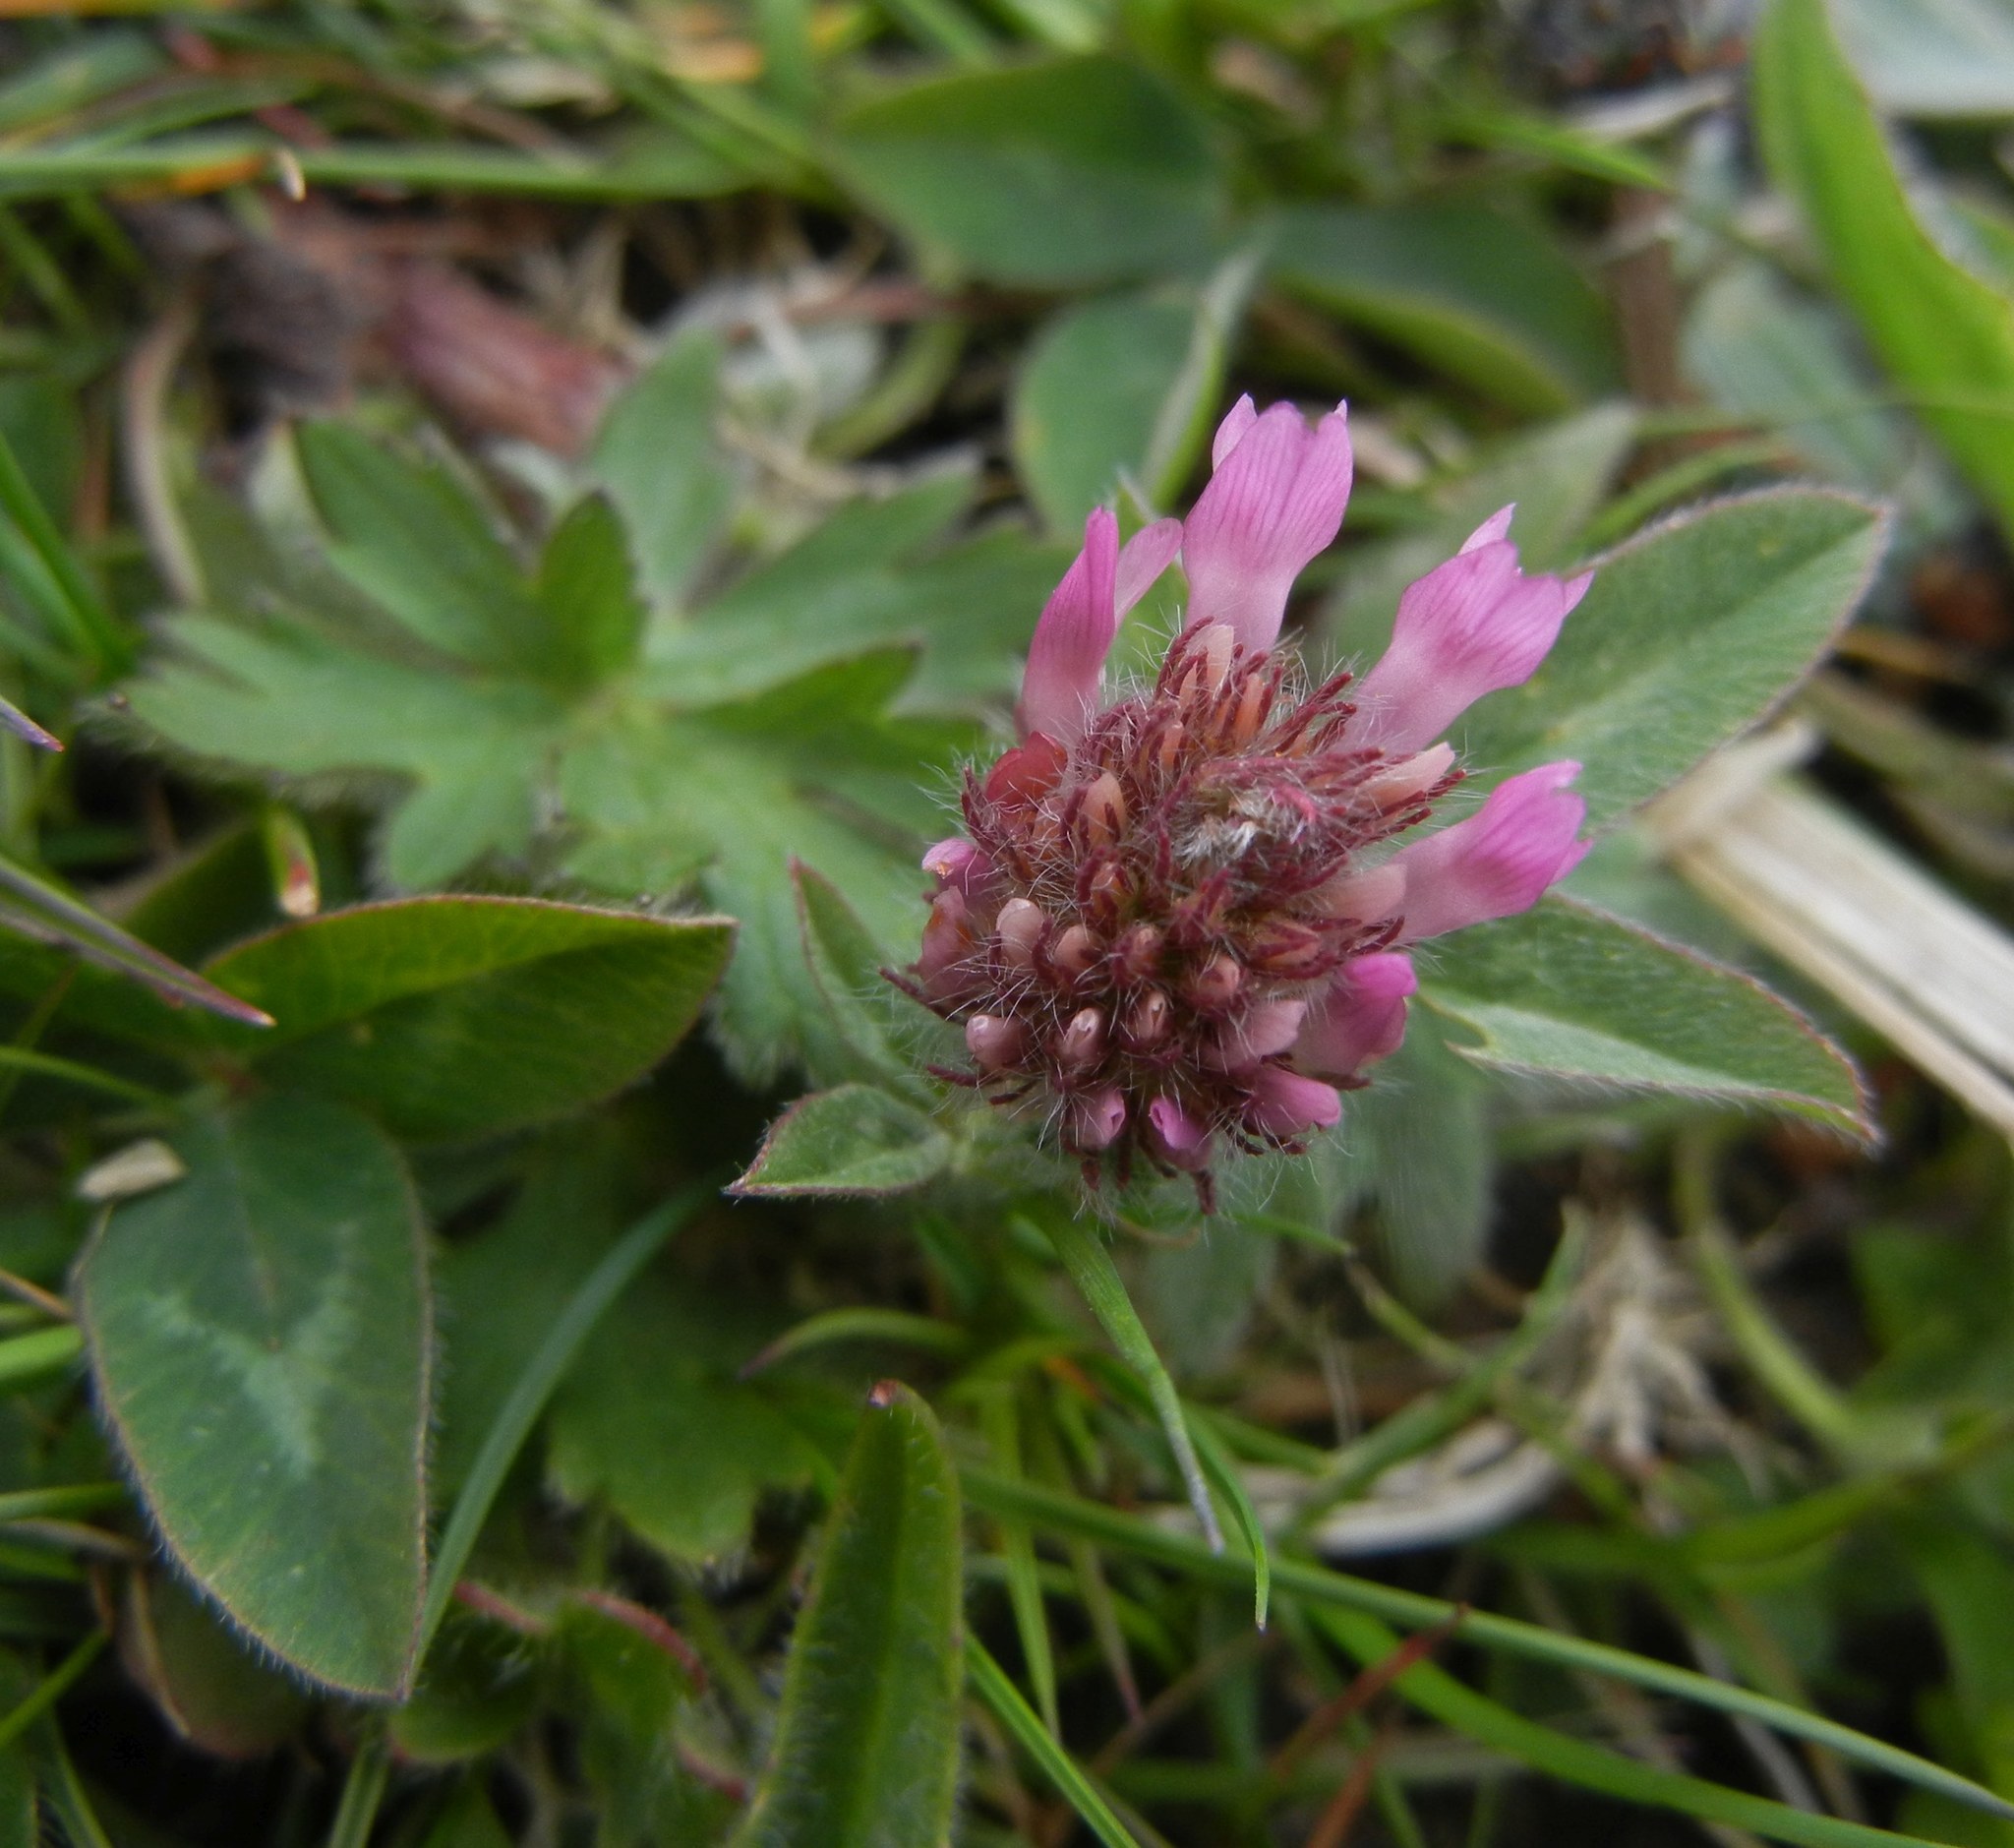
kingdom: Plantae
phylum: Tracheophyta
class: Magnoliopsida
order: Fabales
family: Fabaceae
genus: Trifolium
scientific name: Trifolium pratense
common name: Red clover
